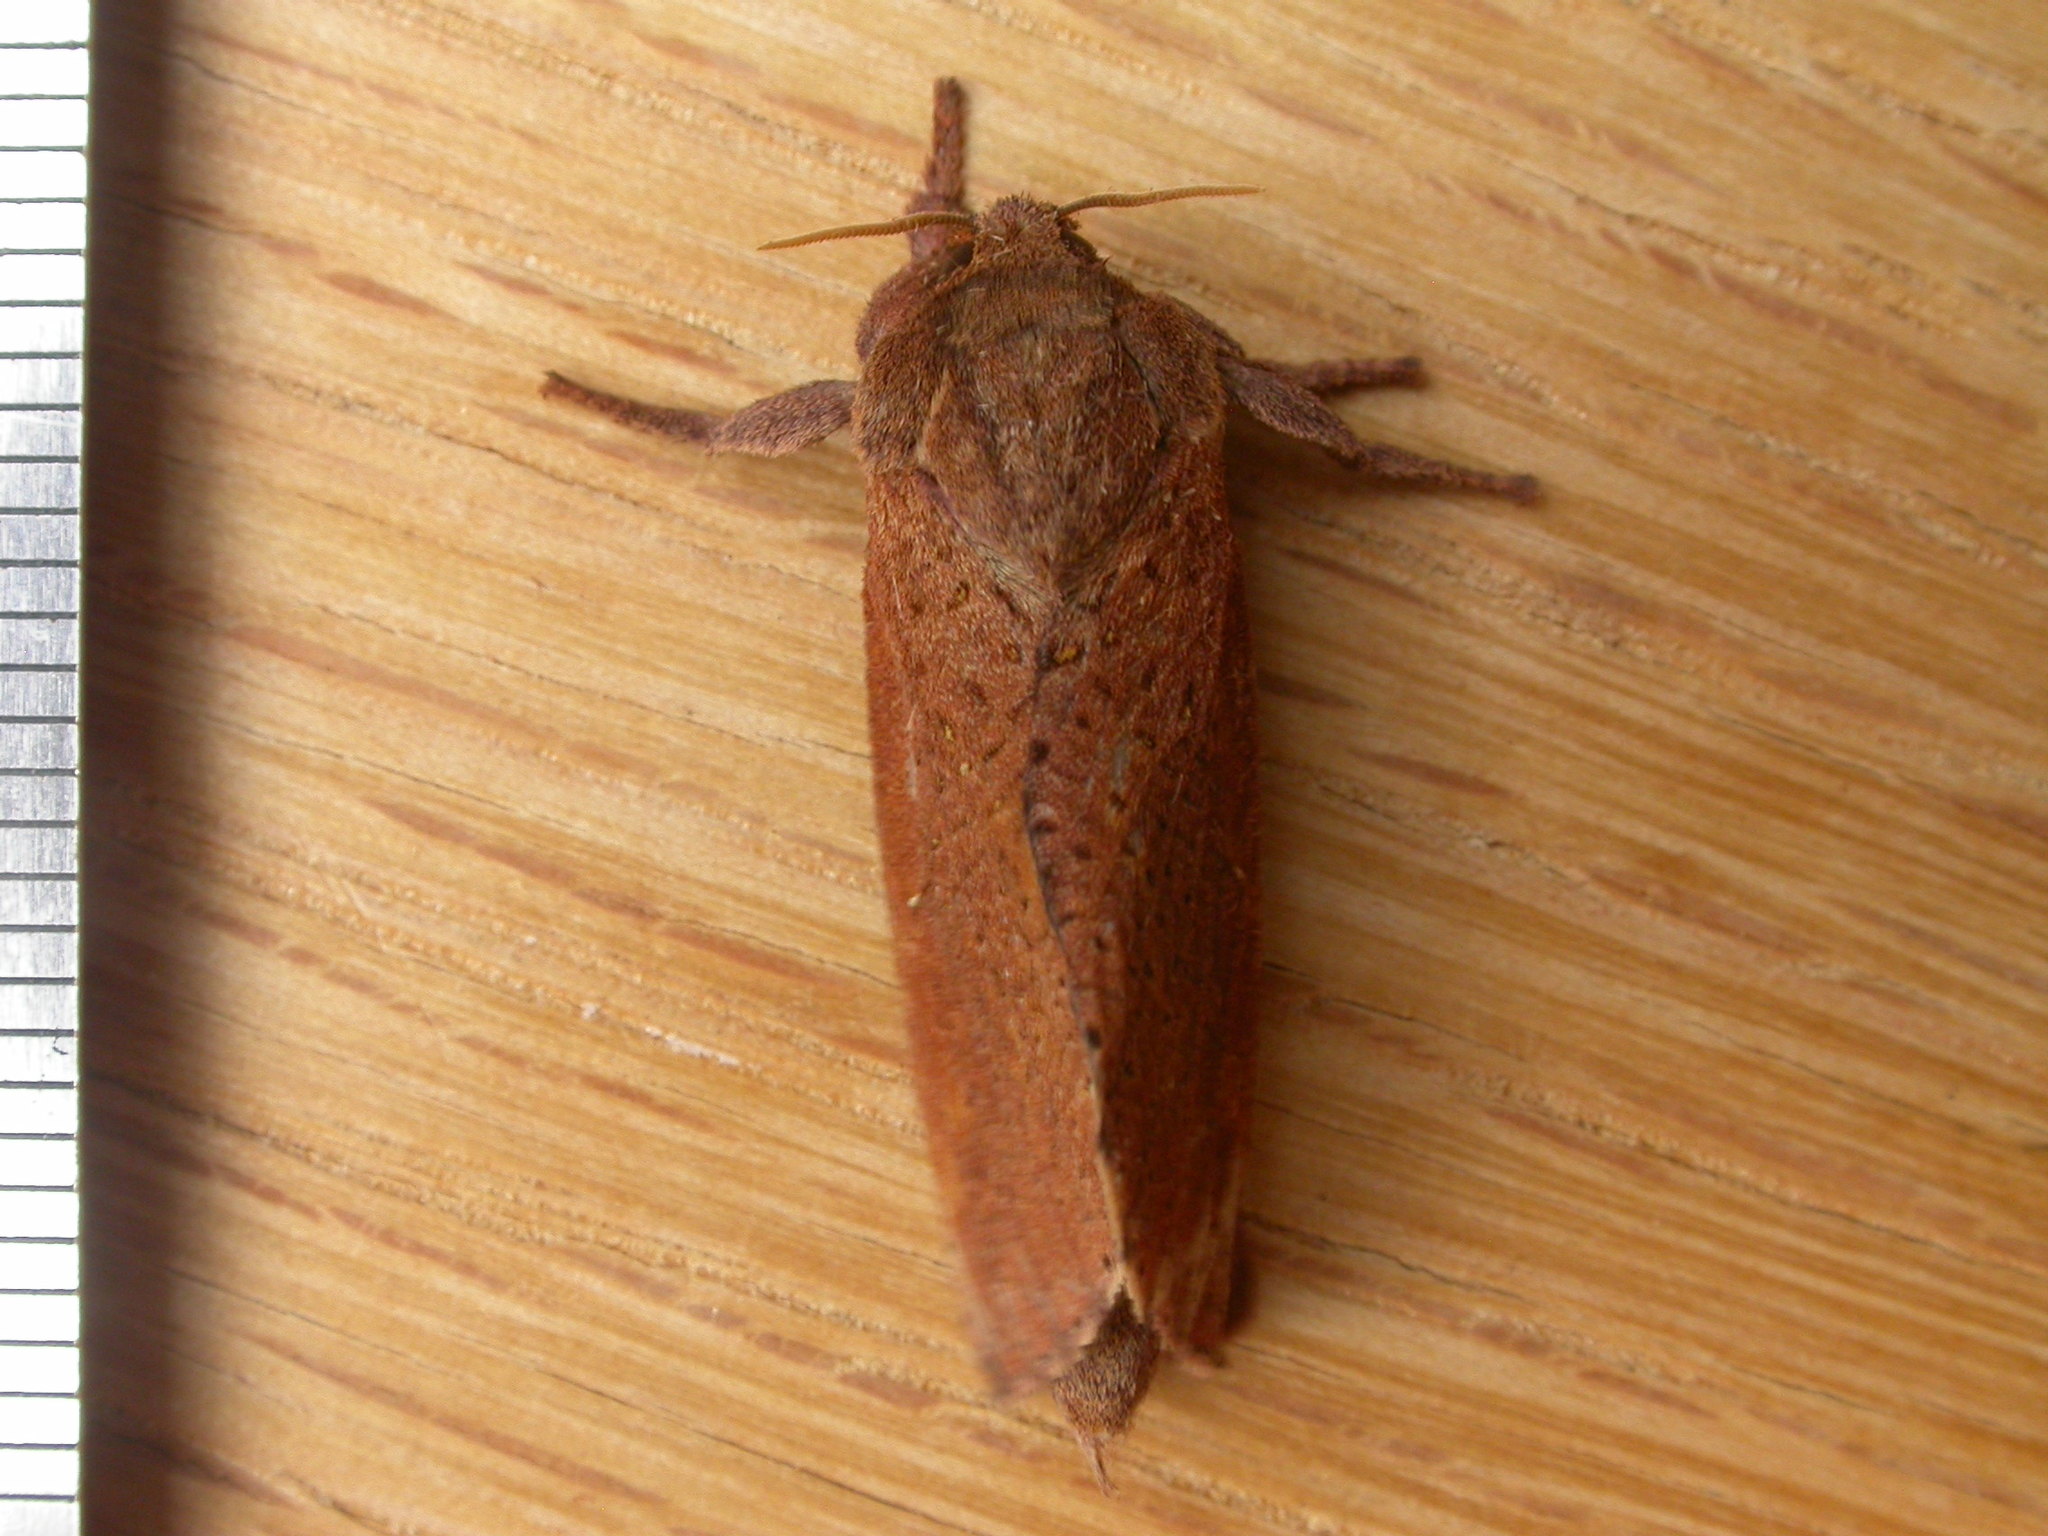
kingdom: Animalia
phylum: Arthropoda
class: Insecta
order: Lepidoptera
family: Hepialidae
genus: Elhamma
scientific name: Elhamma australasiae
